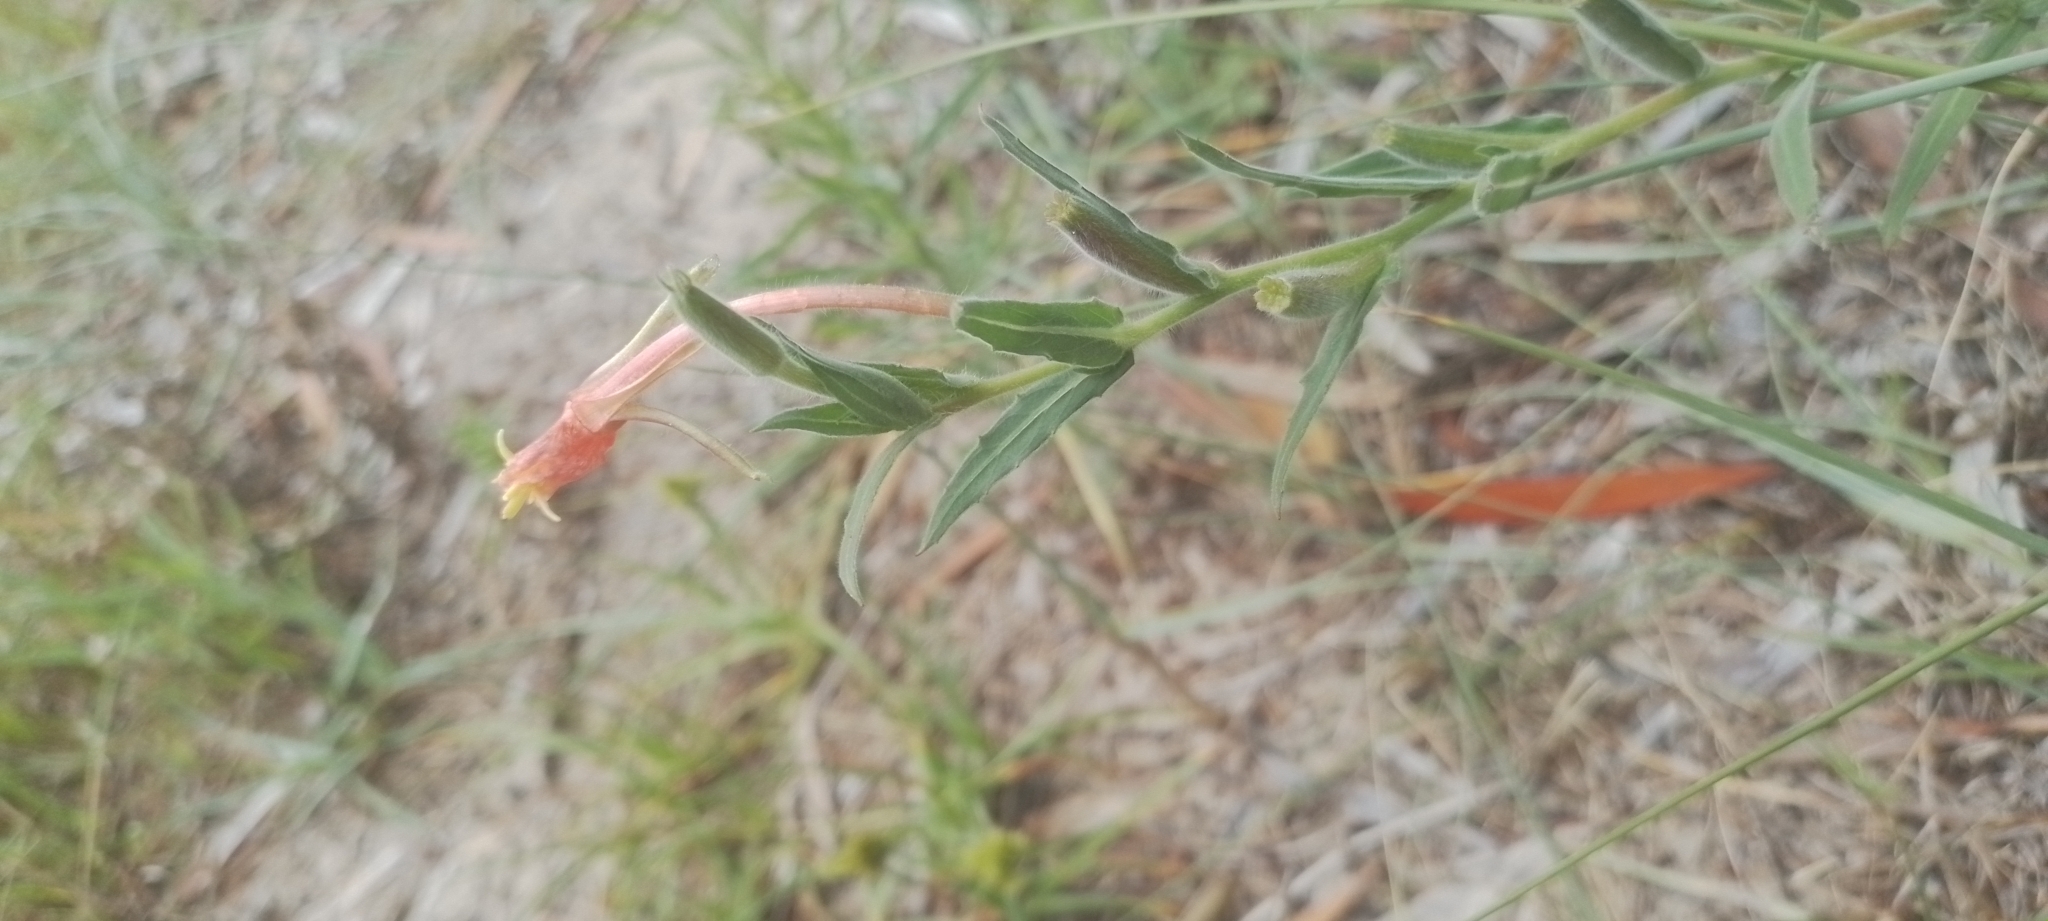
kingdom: Plantae
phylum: Tracheophyta
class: Magnoliopsida
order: Myrtales
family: Onagraceae
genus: Oenothera
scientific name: Oenothera affinis
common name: Longflower evening primrose
